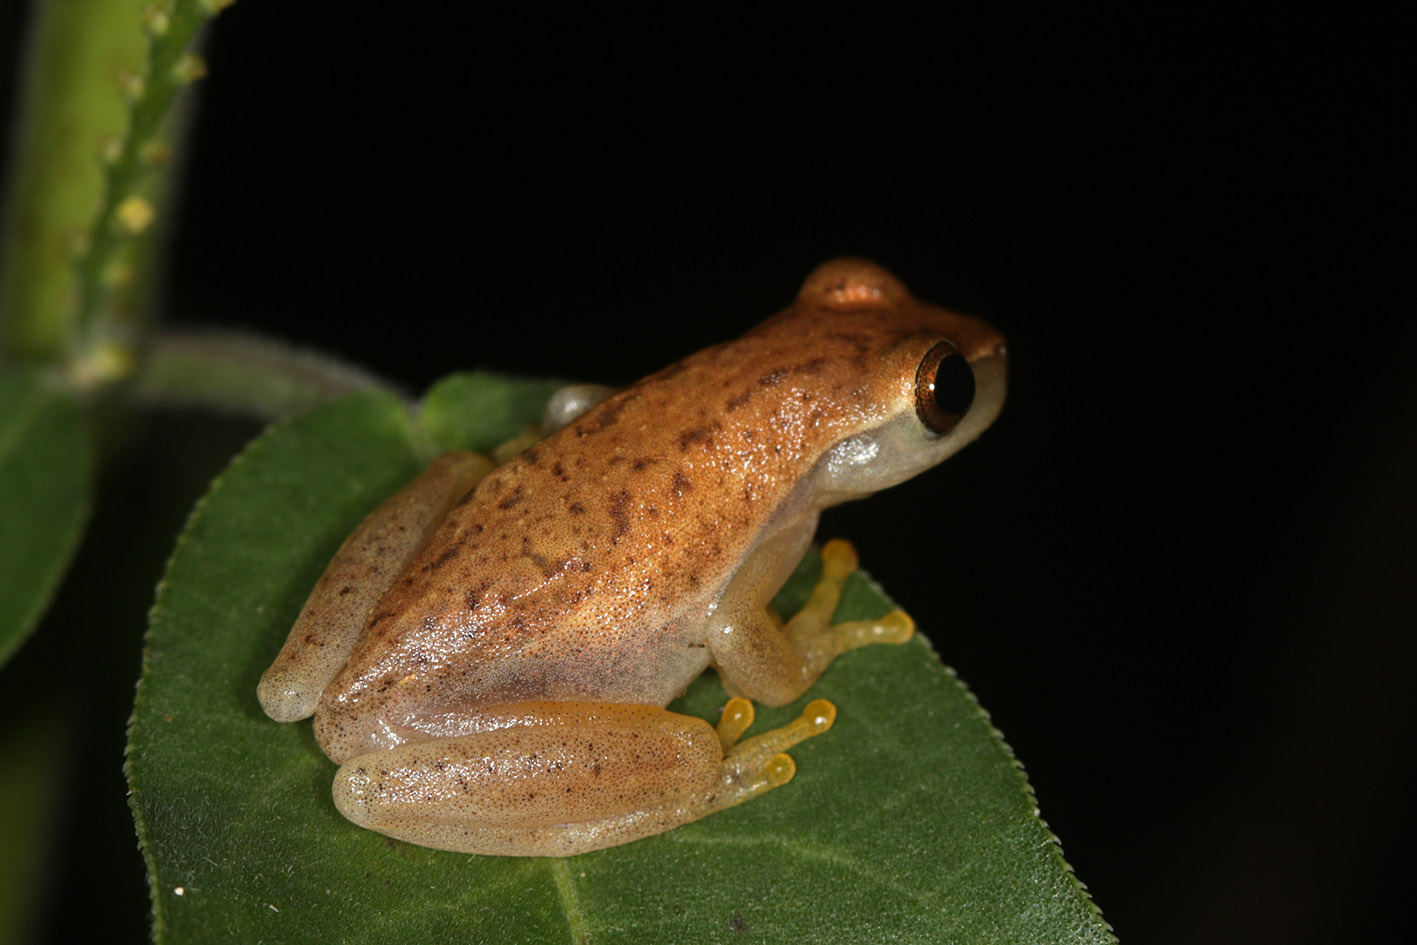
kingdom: Animalia
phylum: Chordata
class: Amphibia
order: Anura
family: Hylidae
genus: Dendropsophus
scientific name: Dendropsophus nanus
